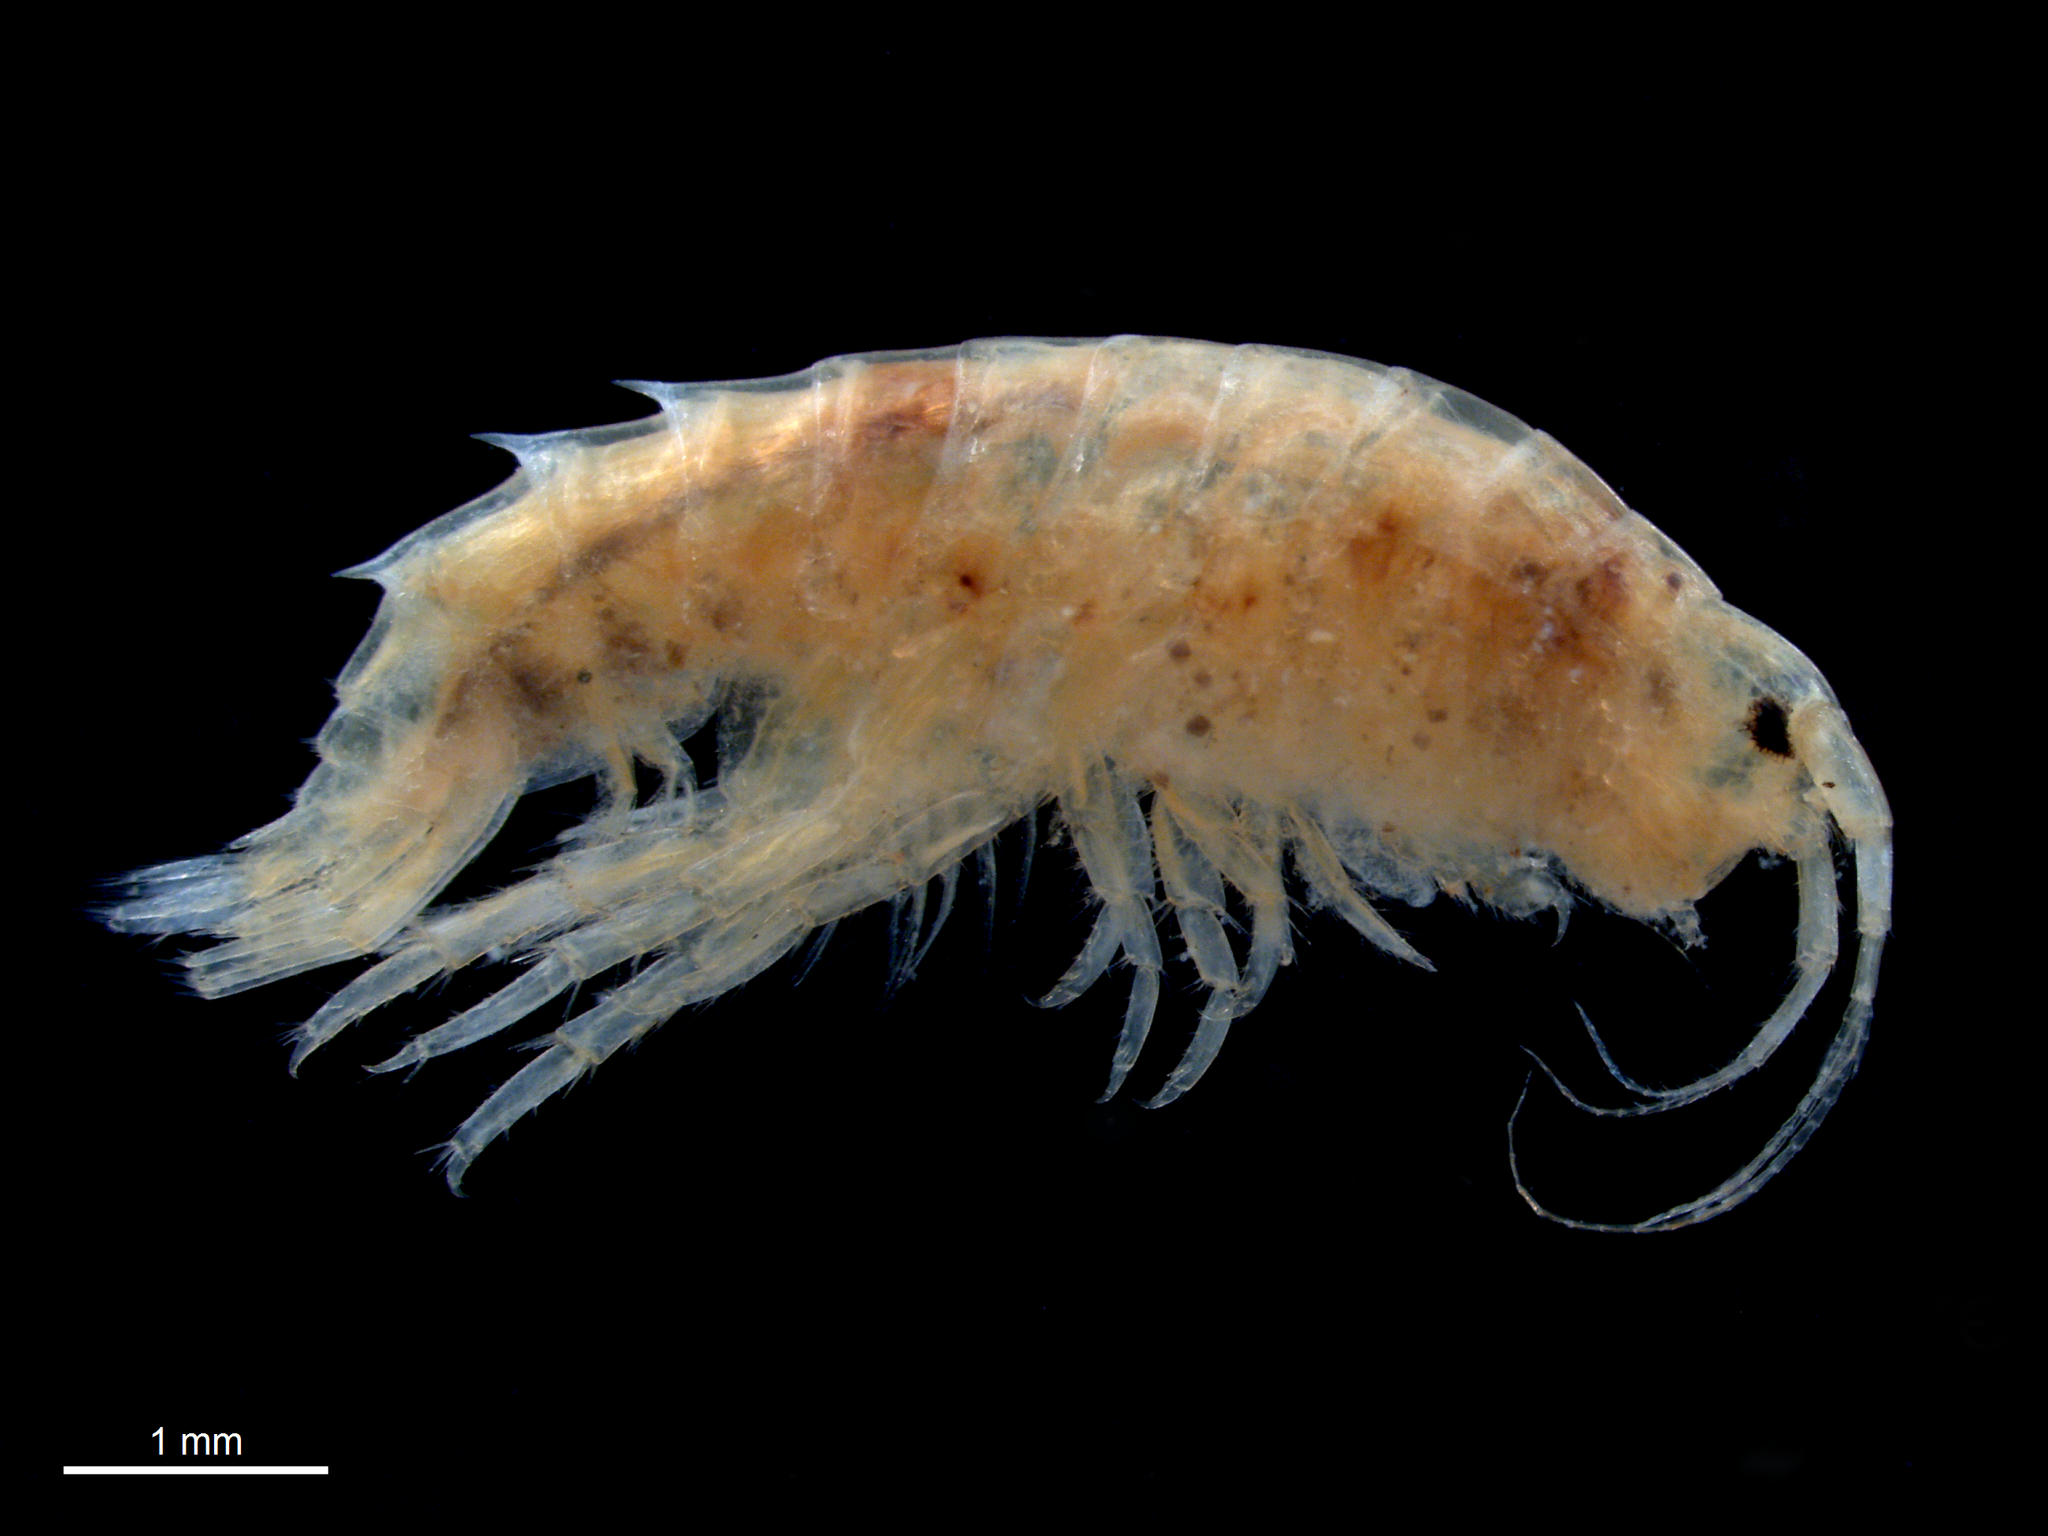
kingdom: Animalia
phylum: Arthropoda
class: Malacostraca
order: Amphipoda
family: Gammaridae
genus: Gammarus
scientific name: Gammarus lecroyae
